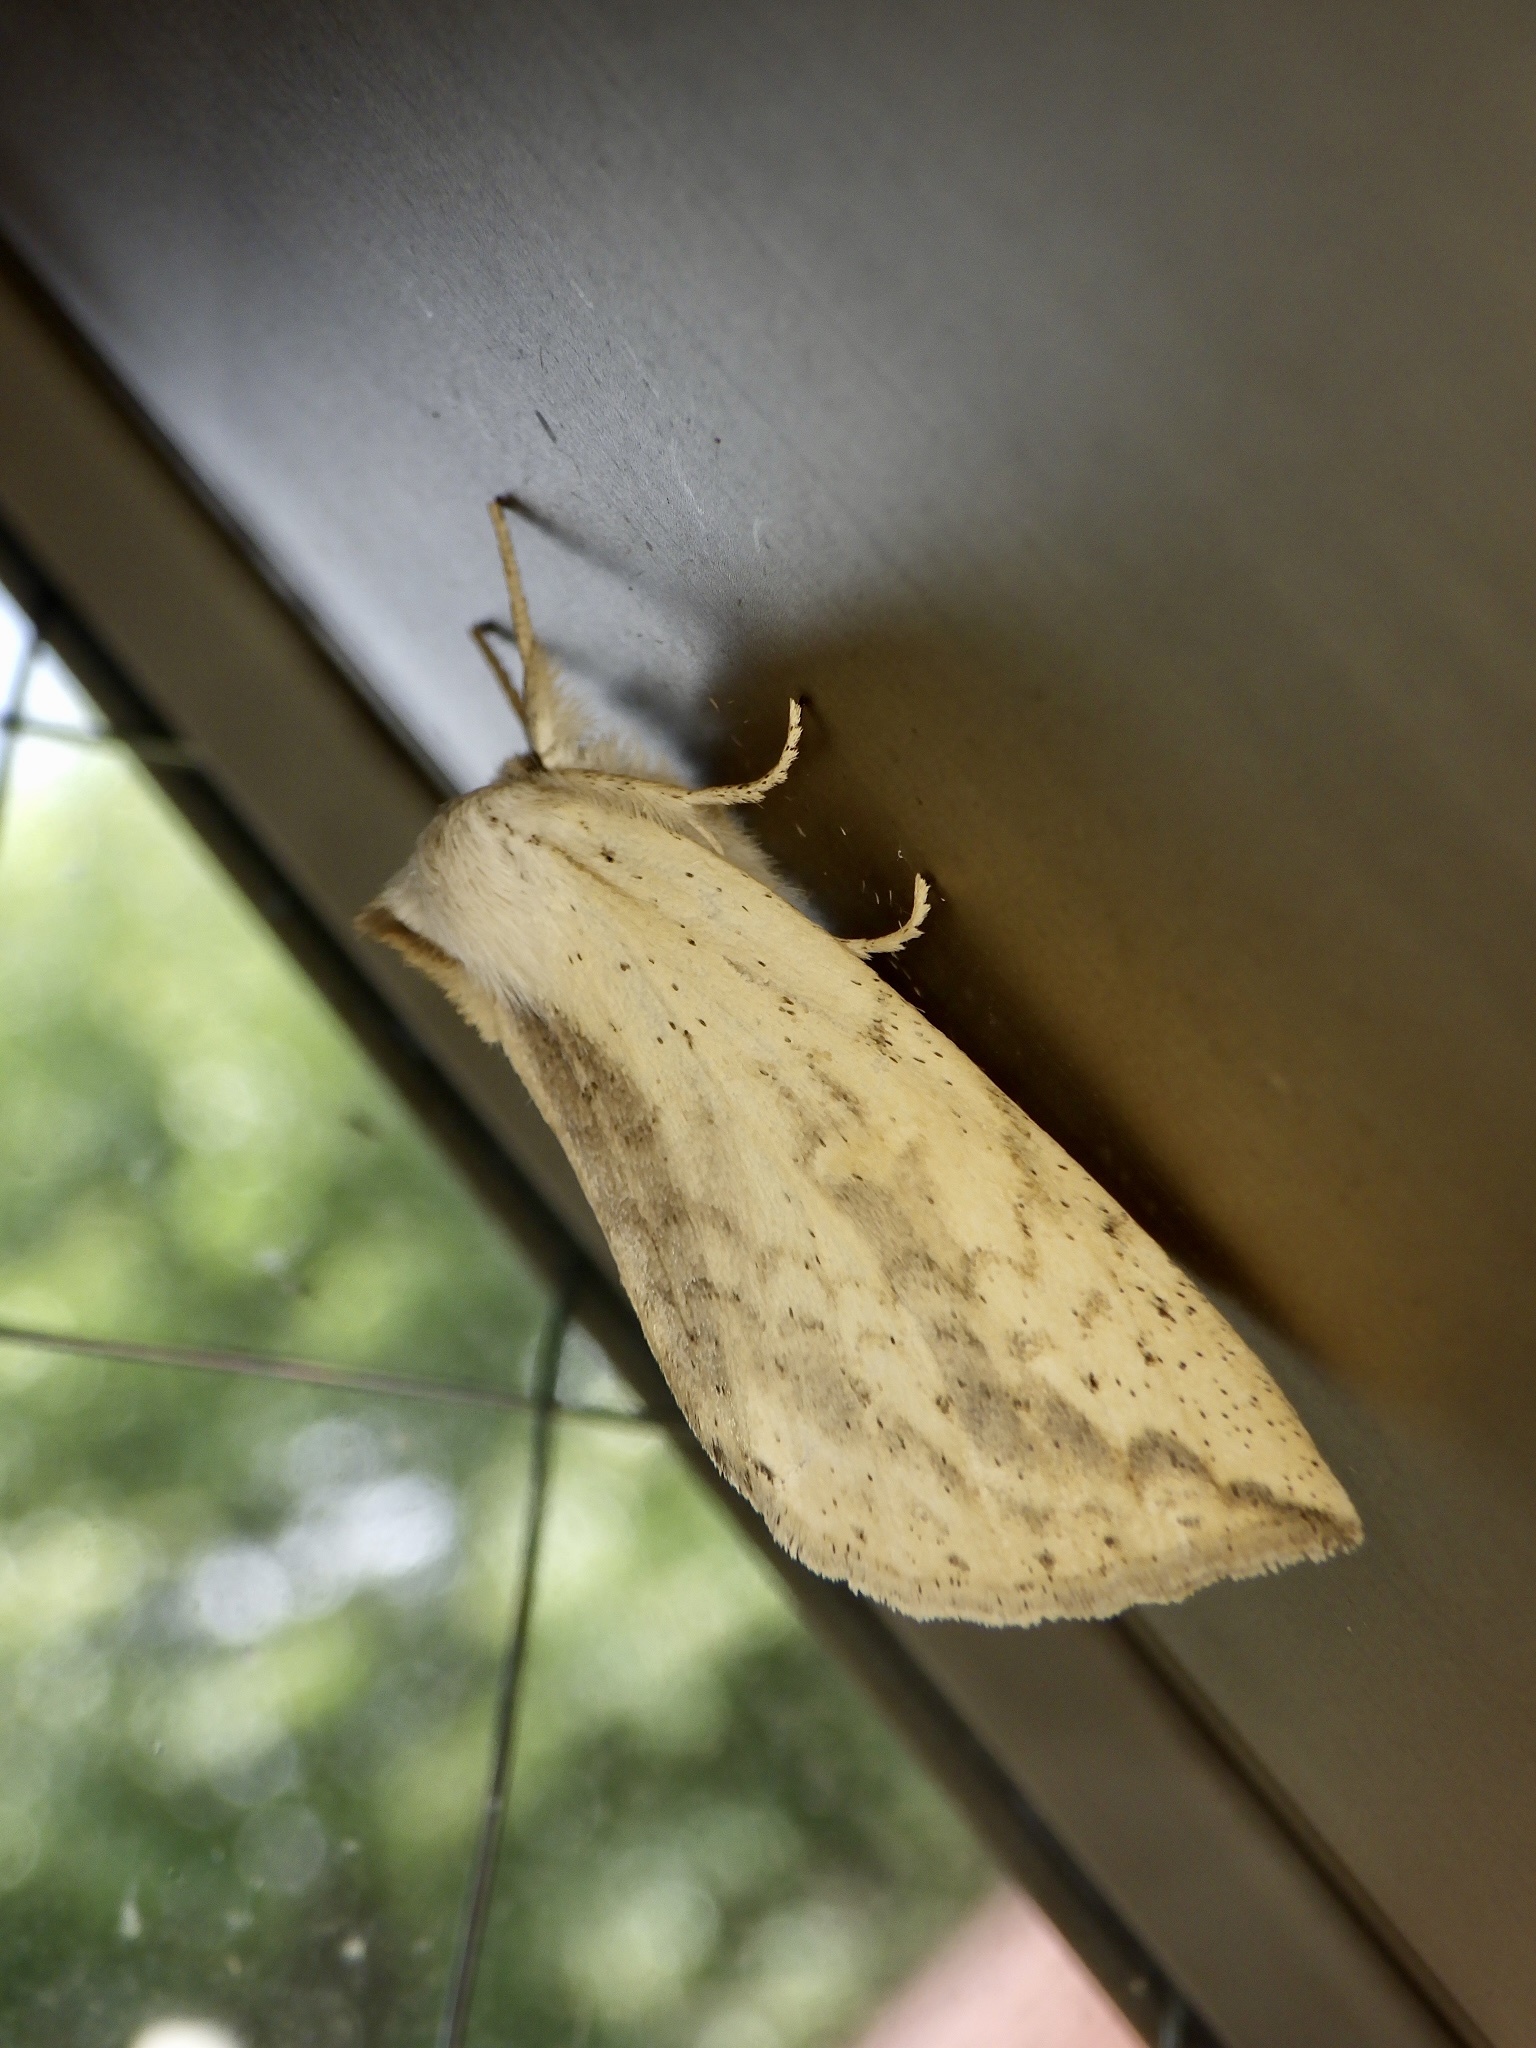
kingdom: Animalia
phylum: Arthropoda
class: Insecta
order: Lepidoptera
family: Notodontidae
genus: Mimopydna
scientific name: Mimopydna pallida
